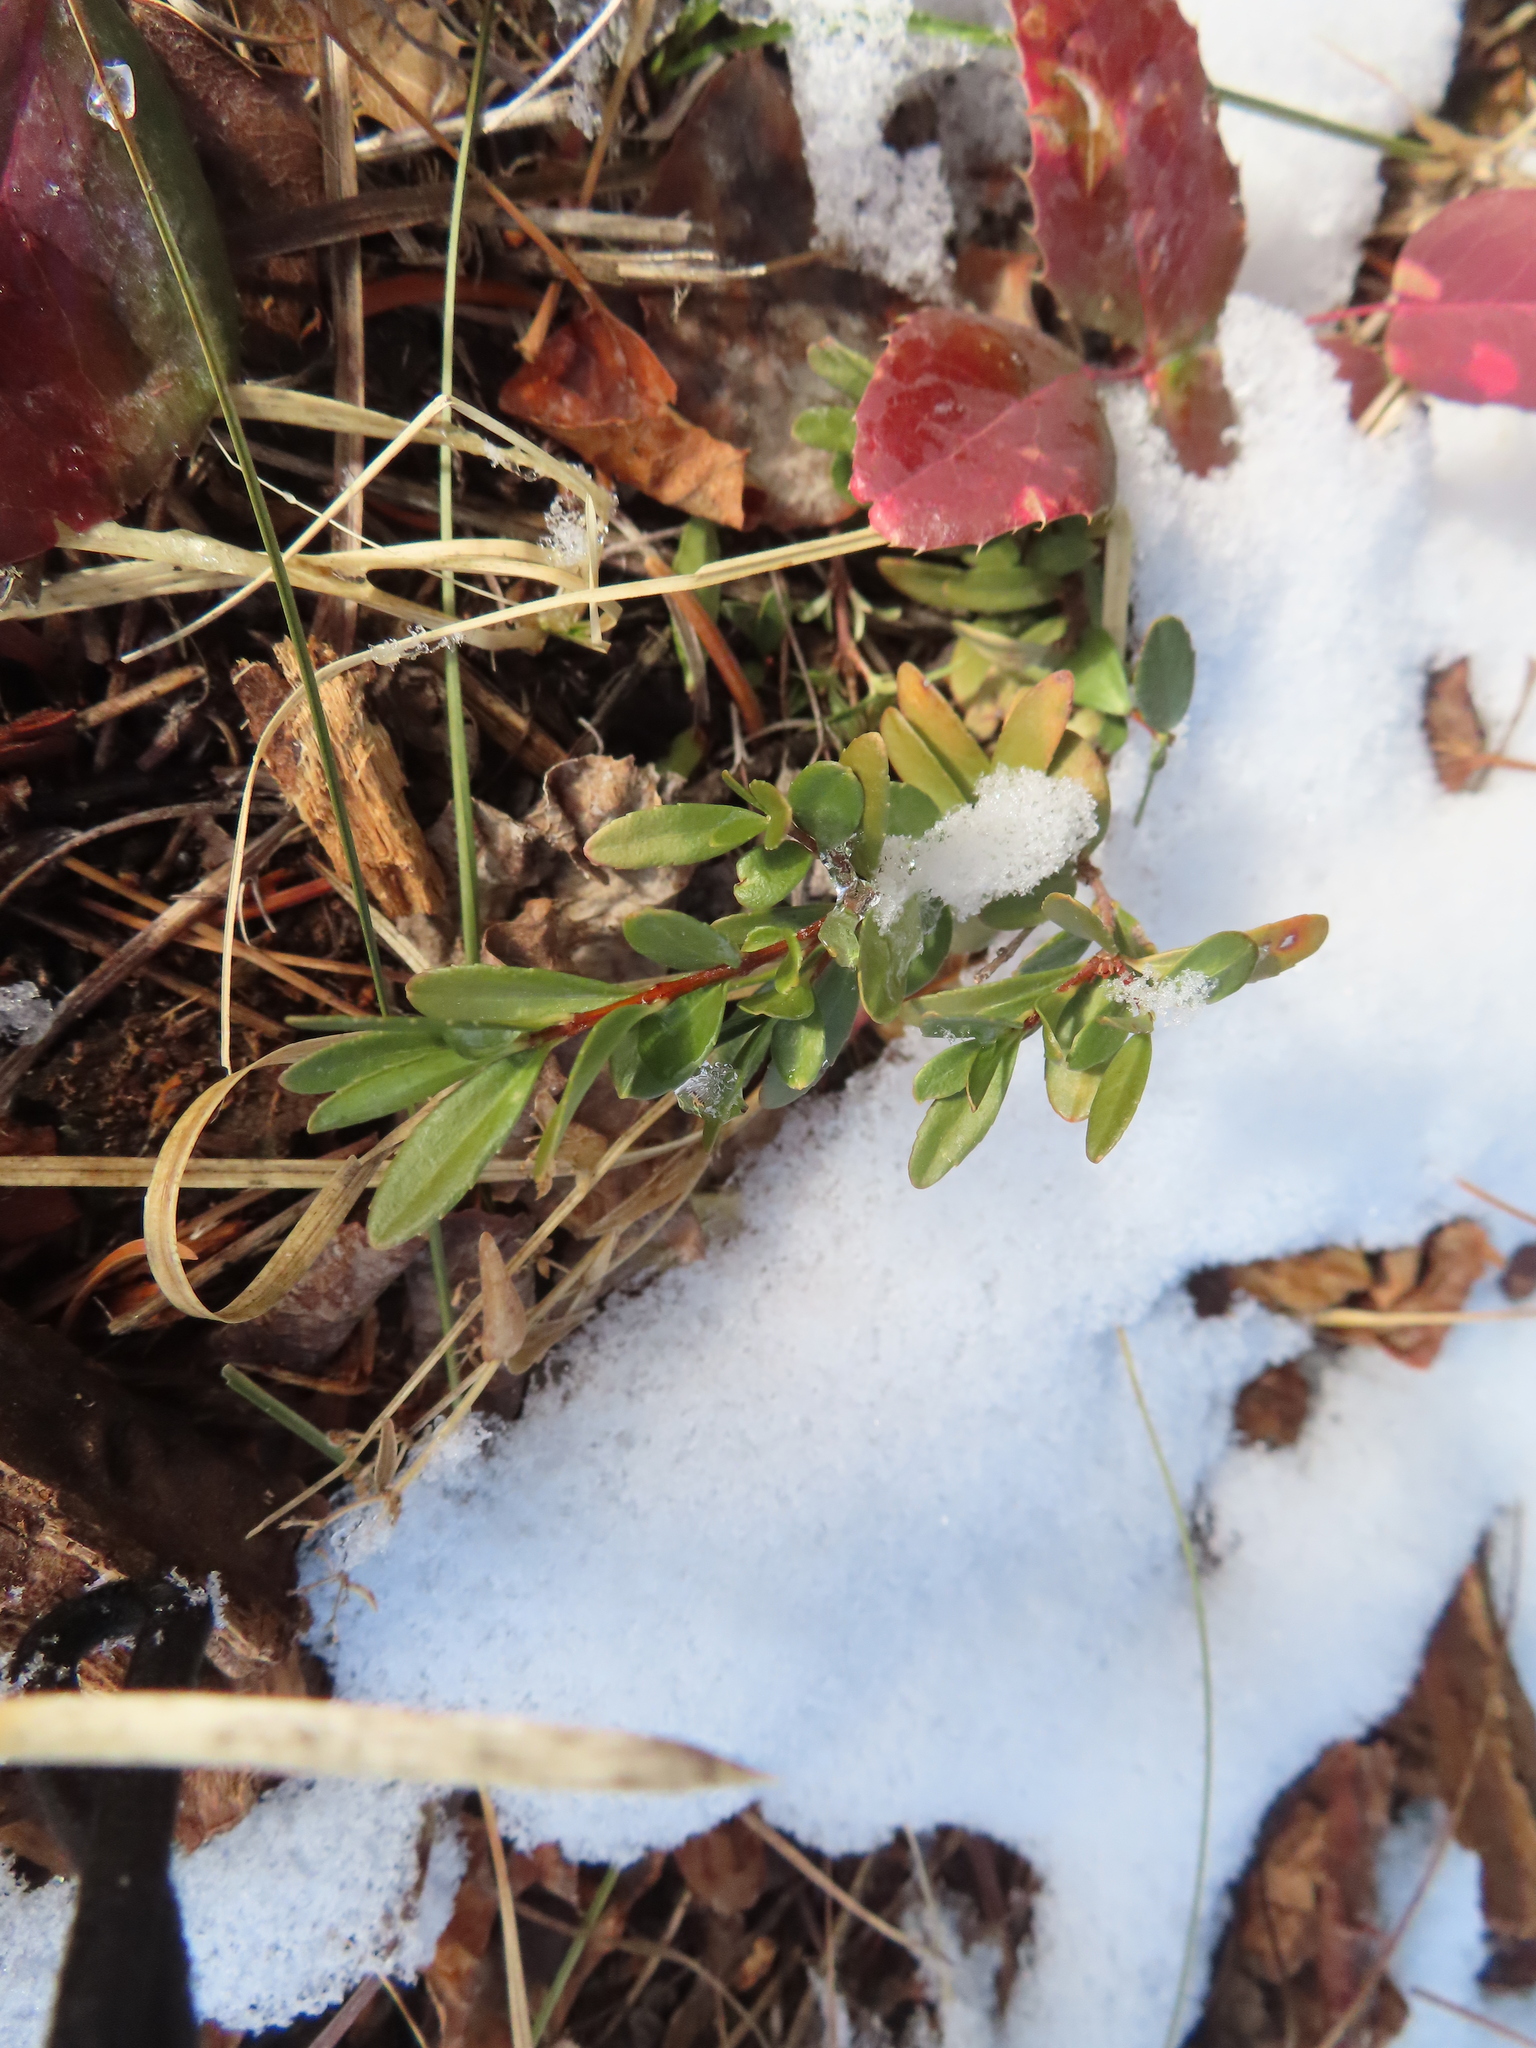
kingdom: Plantae
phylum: Tracheophyta
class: Magnoliopsida
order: Celastrales
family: Celastraceae
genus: Paxistima
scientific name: Paxistima myrsinites
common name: Mountain-lover
